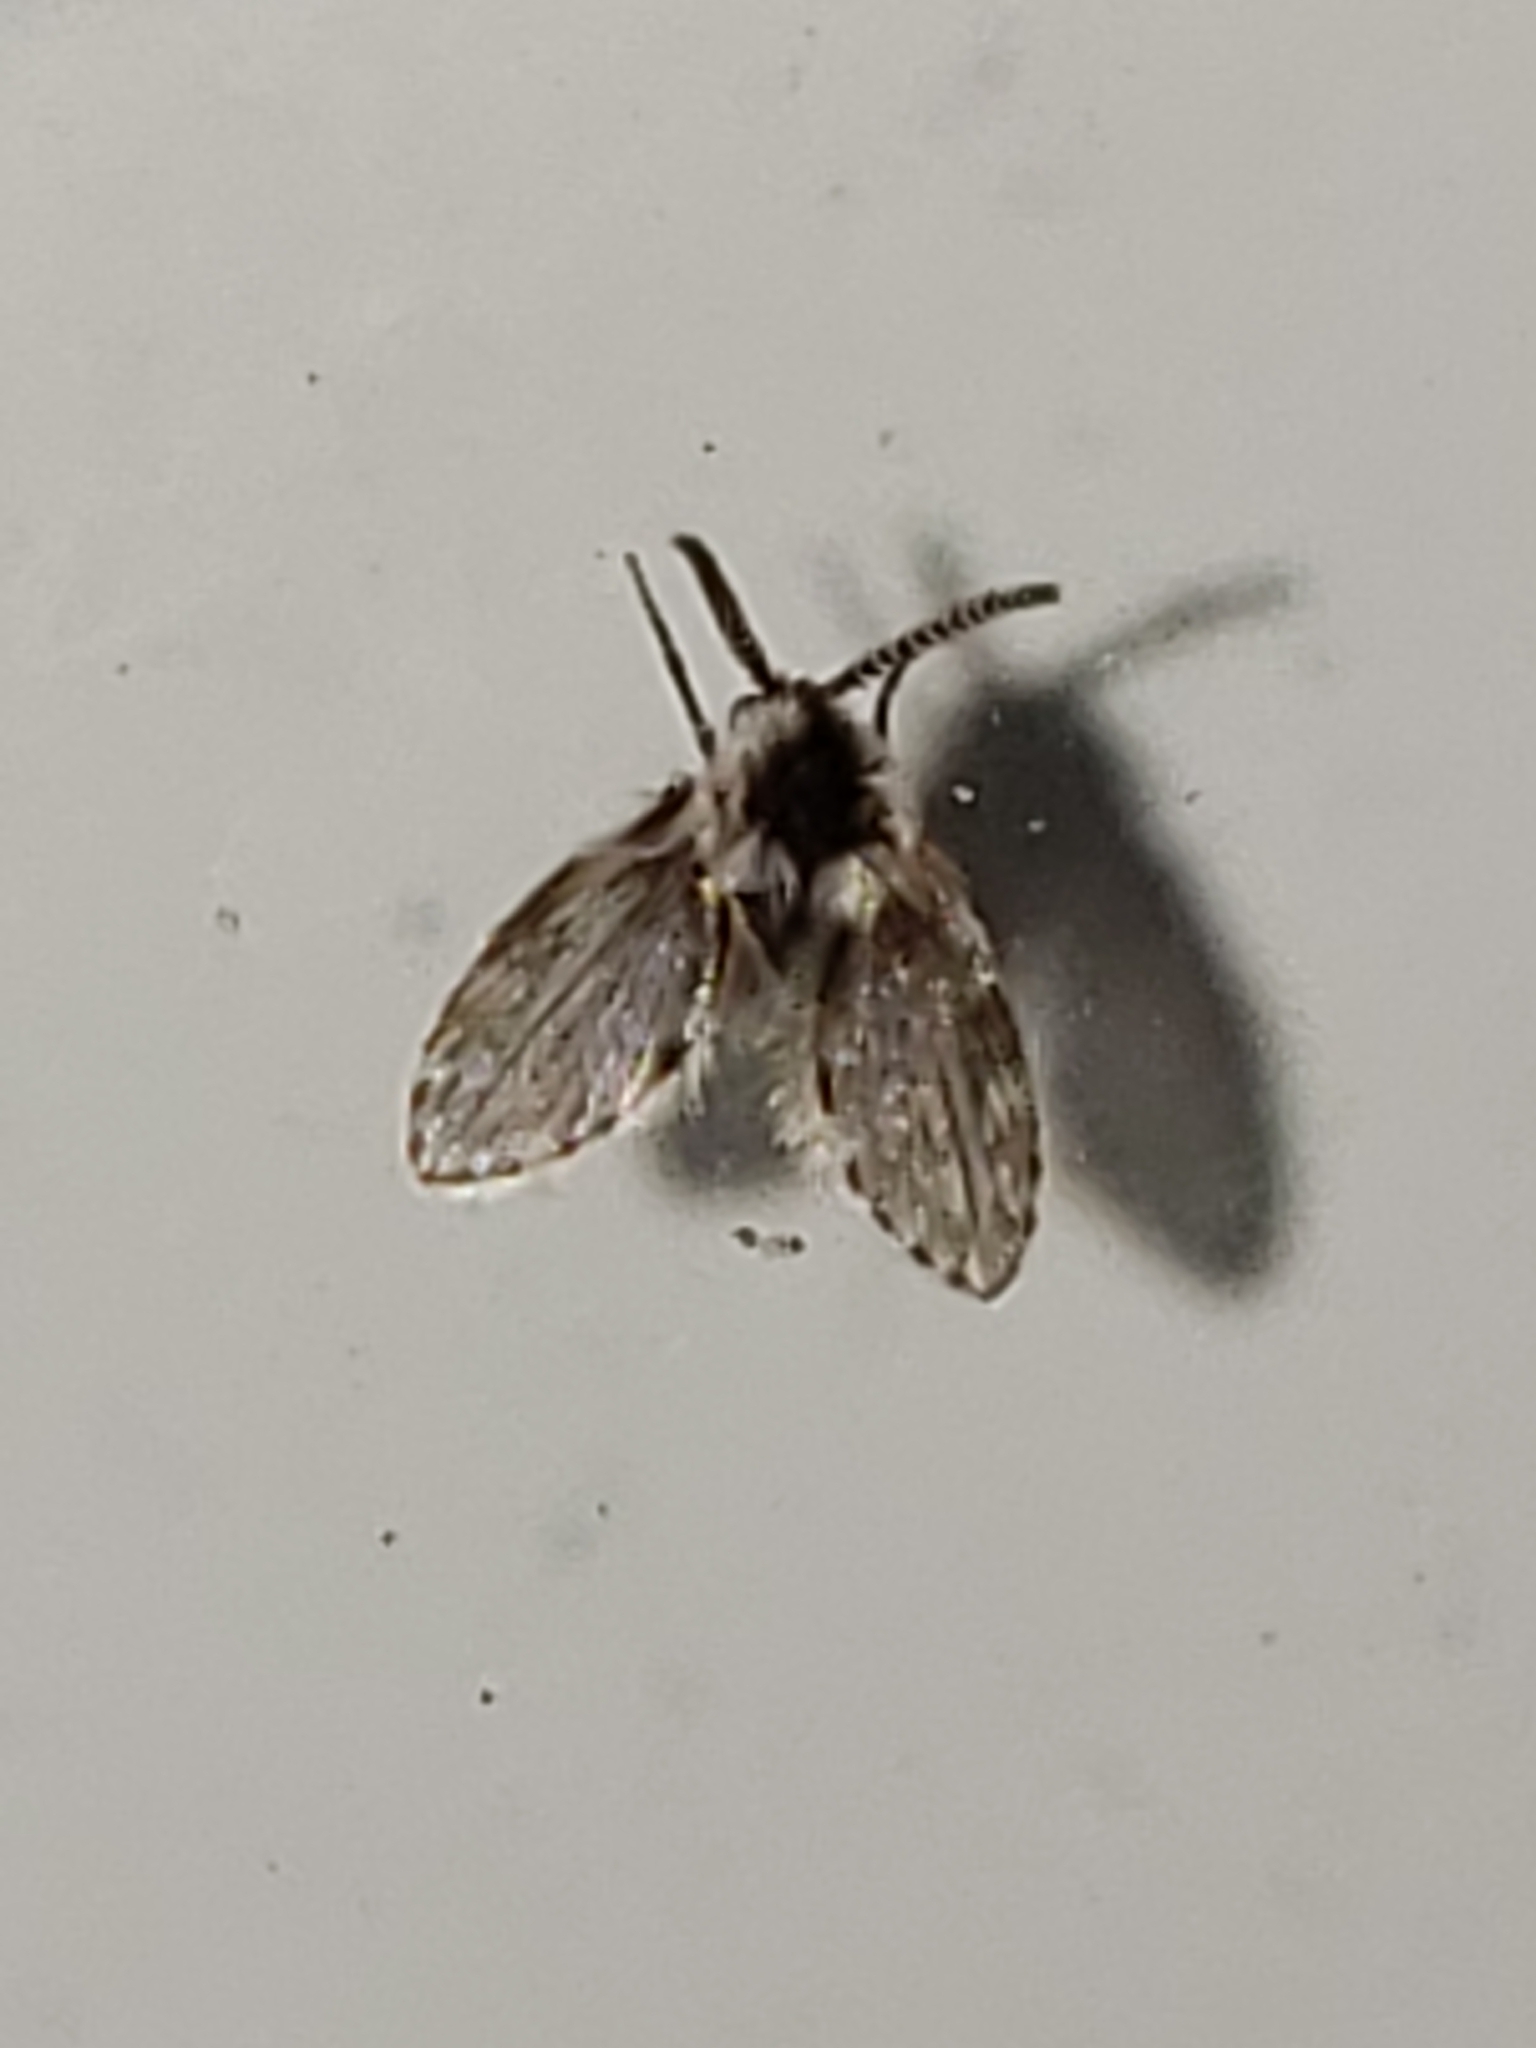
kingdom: Animalia
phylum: Arthropoda
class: Insecta
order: Diptera
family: Psychodidae
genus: Lepiseodina
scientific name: Lepiseodina
